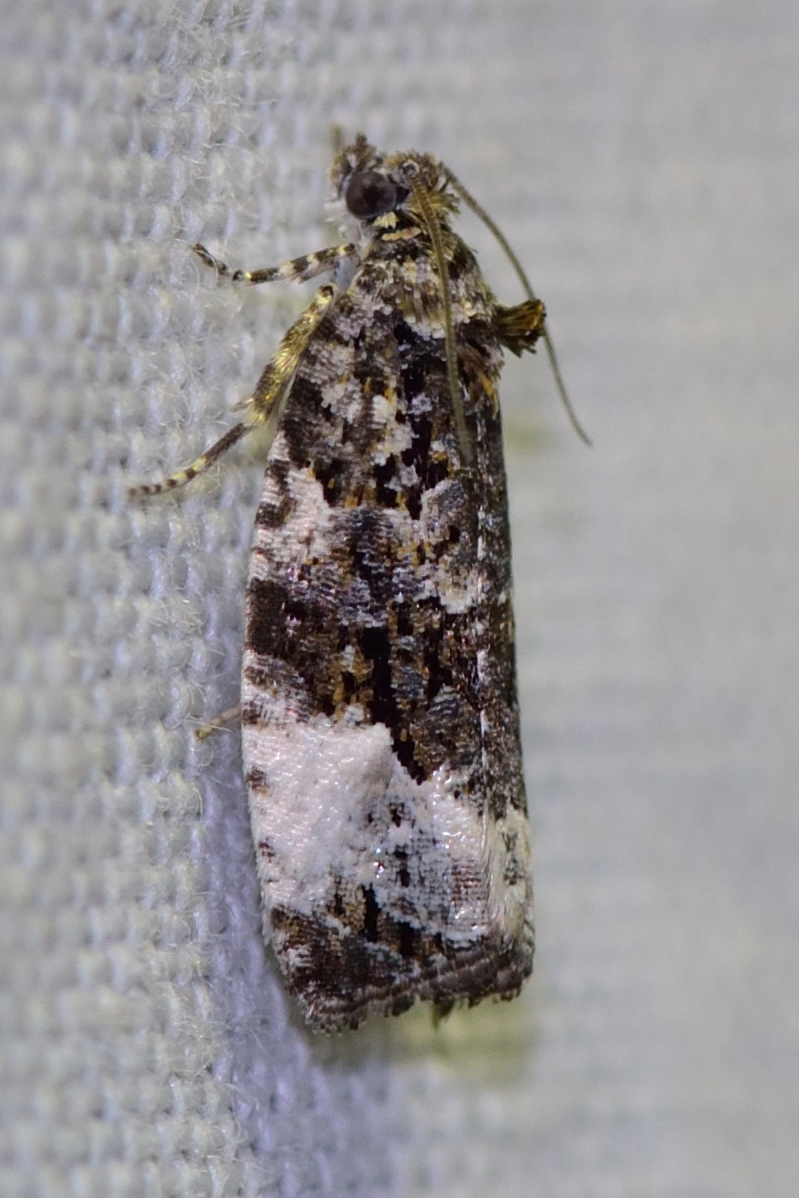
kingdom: Animalia
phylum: Arthropoda
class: Insecta
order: Lepidoptera
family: Tortricidae
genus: Apotomis
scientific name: Apotomis turbidana
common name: White-shouldered marble
